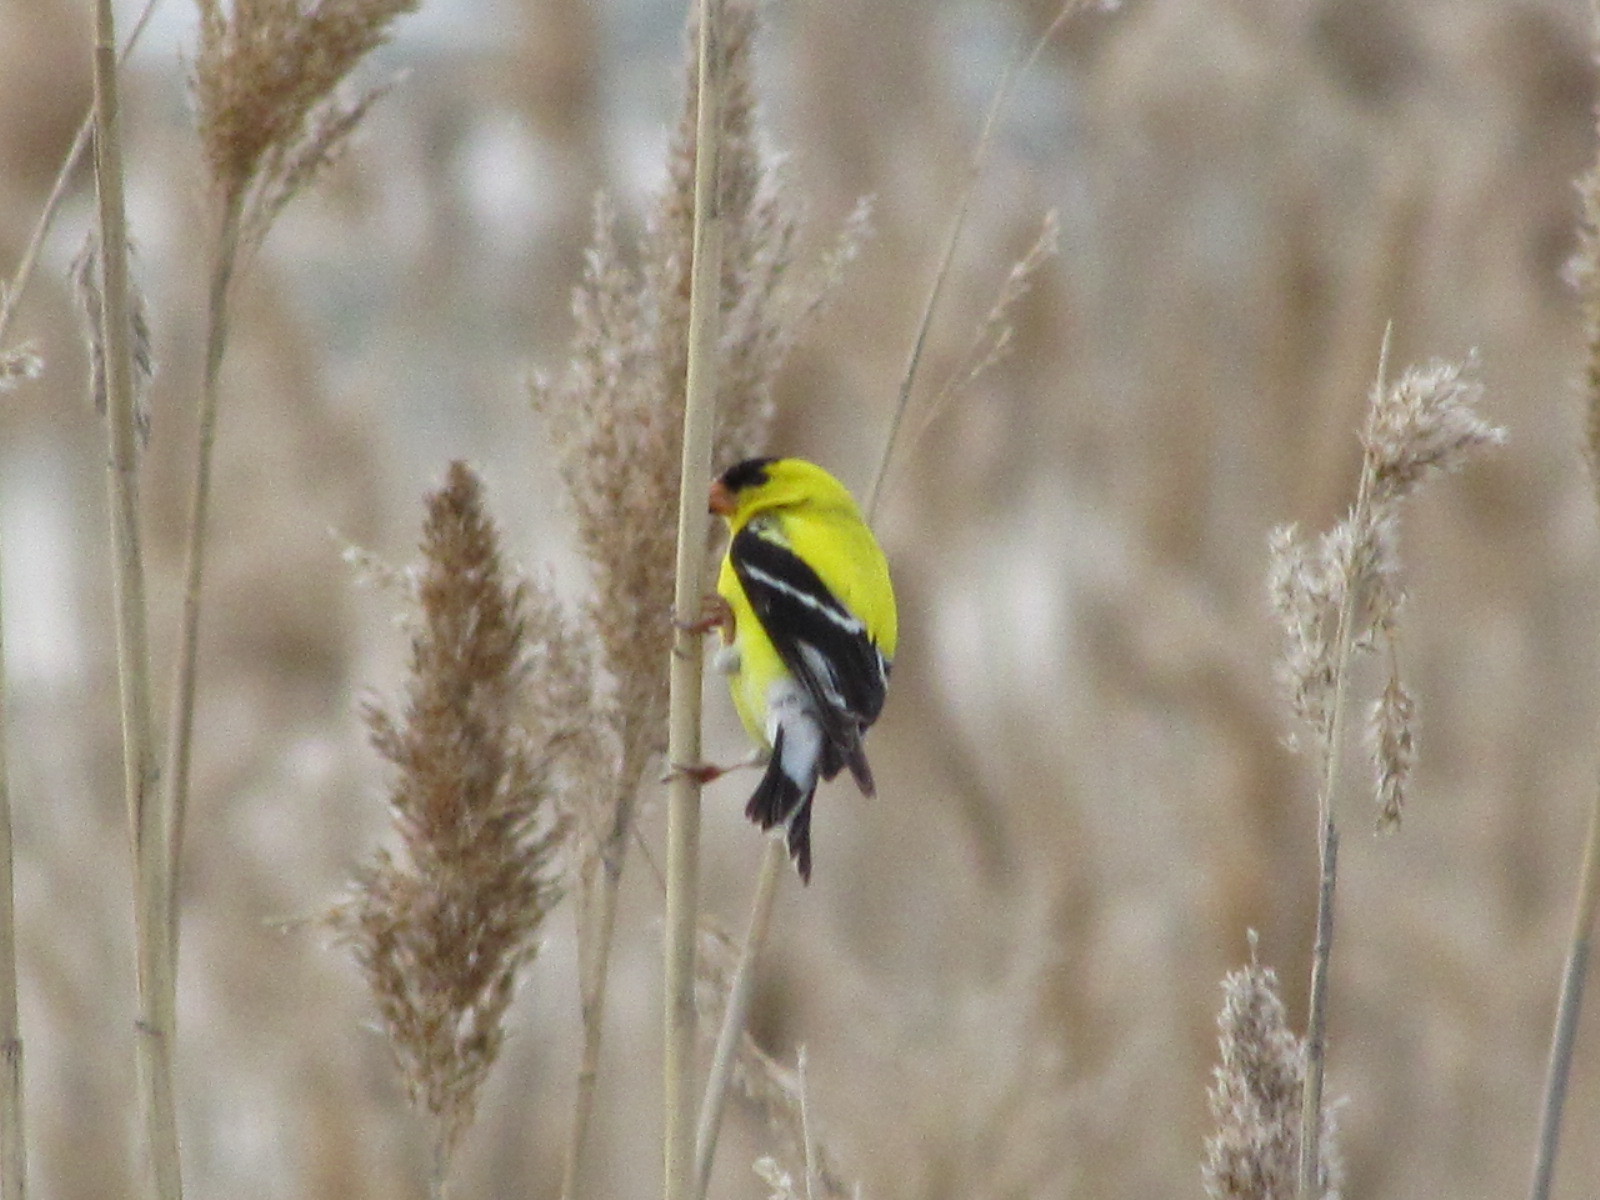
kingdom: Animalia
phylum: Chordata
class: Aves
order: Passeriformes
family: Fringillidae
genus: Spinus
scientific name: Spinus tristis
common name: American goldfinch
